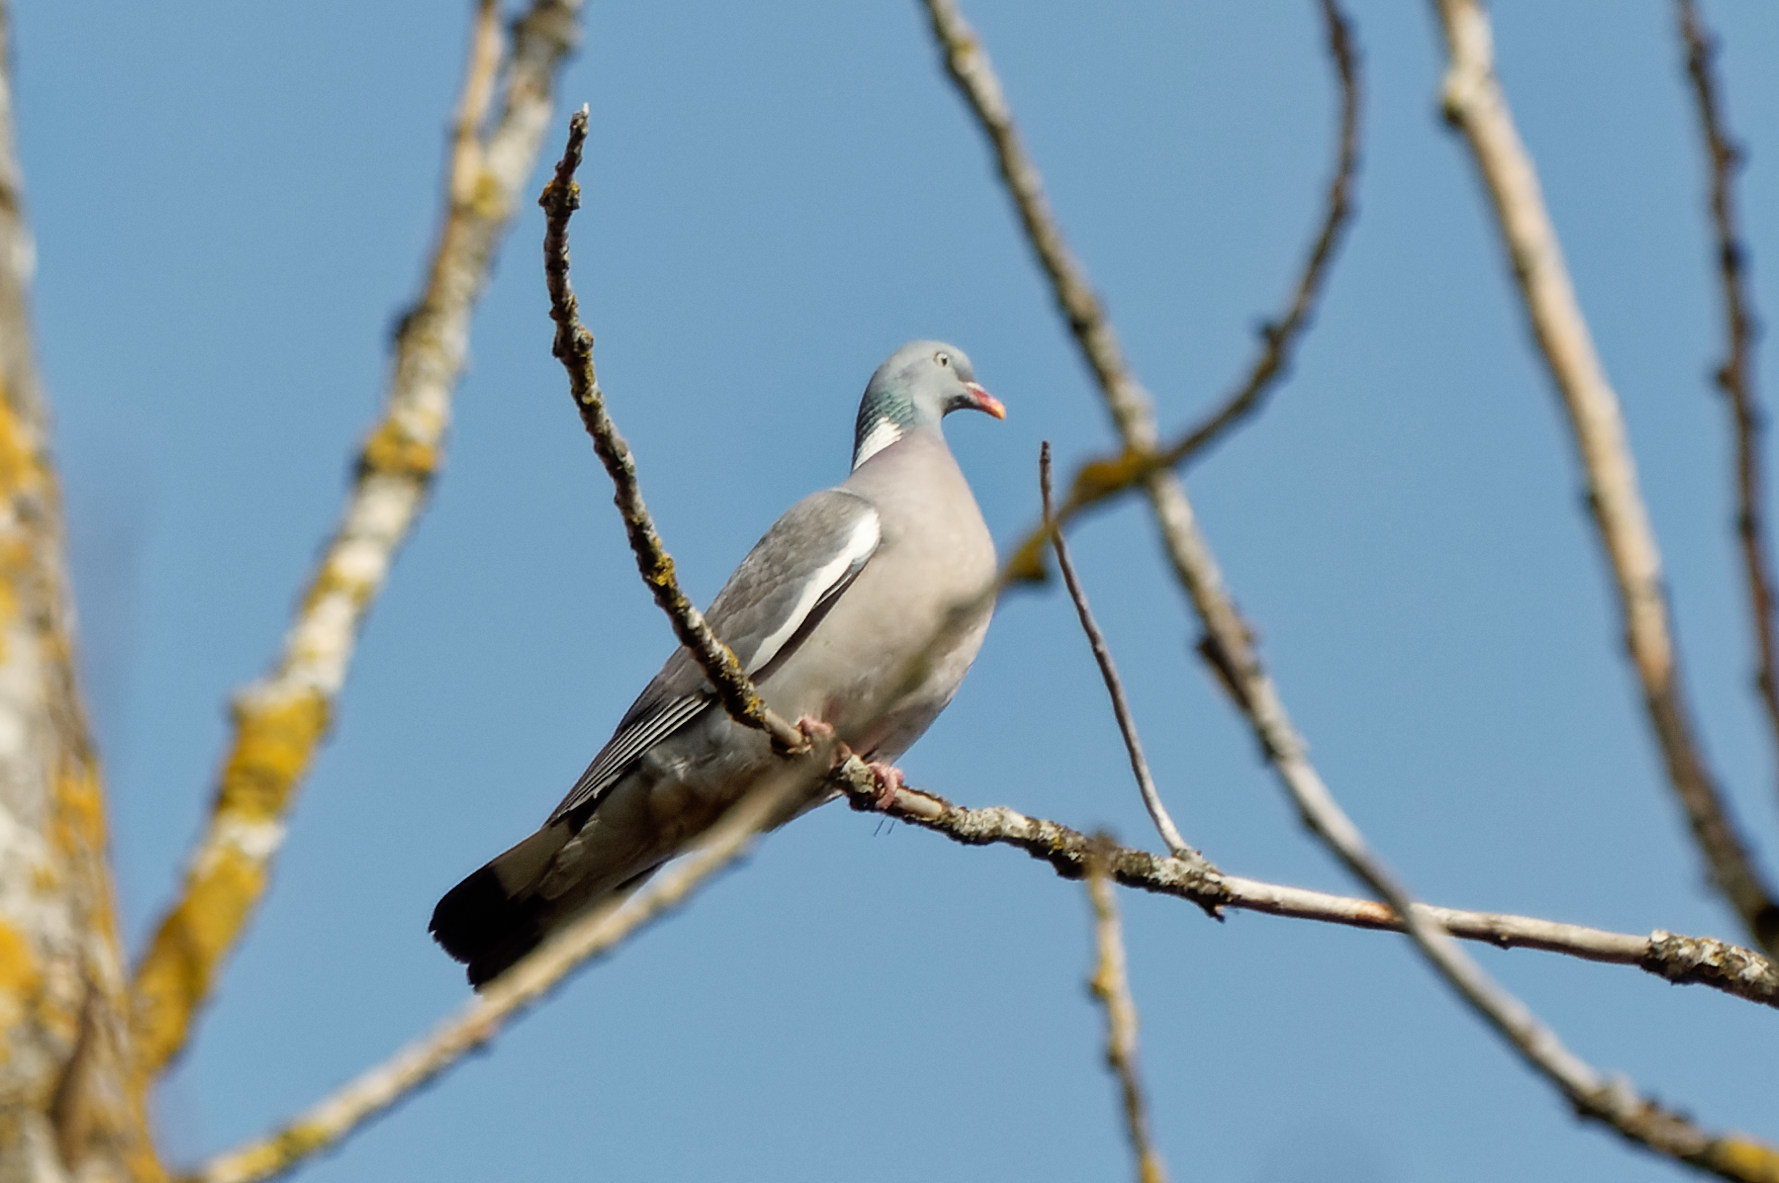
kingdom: Animalia
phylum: Chordata
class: Aves
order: Columbiformes
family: Columbidae
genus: Columba
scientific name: Columba palumbus
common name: Common wood pigeon
